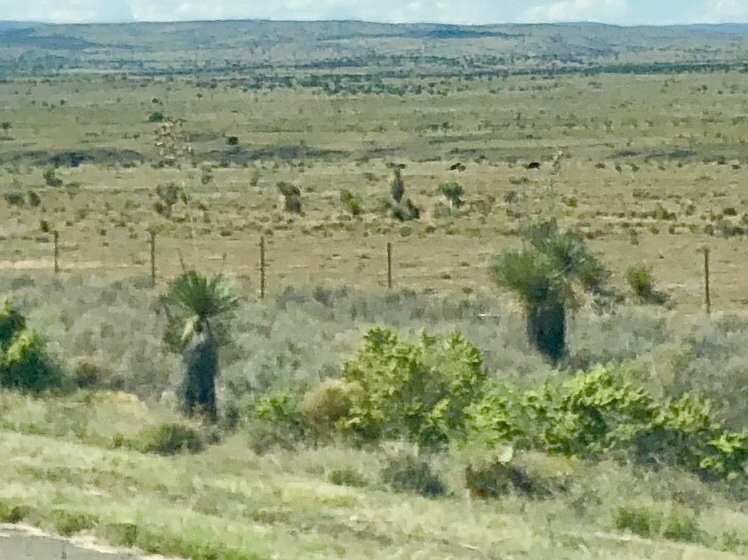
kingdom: Plantae
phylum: Tracheophyta
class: Liliopsida
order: Asparagales
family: Asparagaceae
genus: Yucca
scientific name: Yucca elata
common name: Palmella
